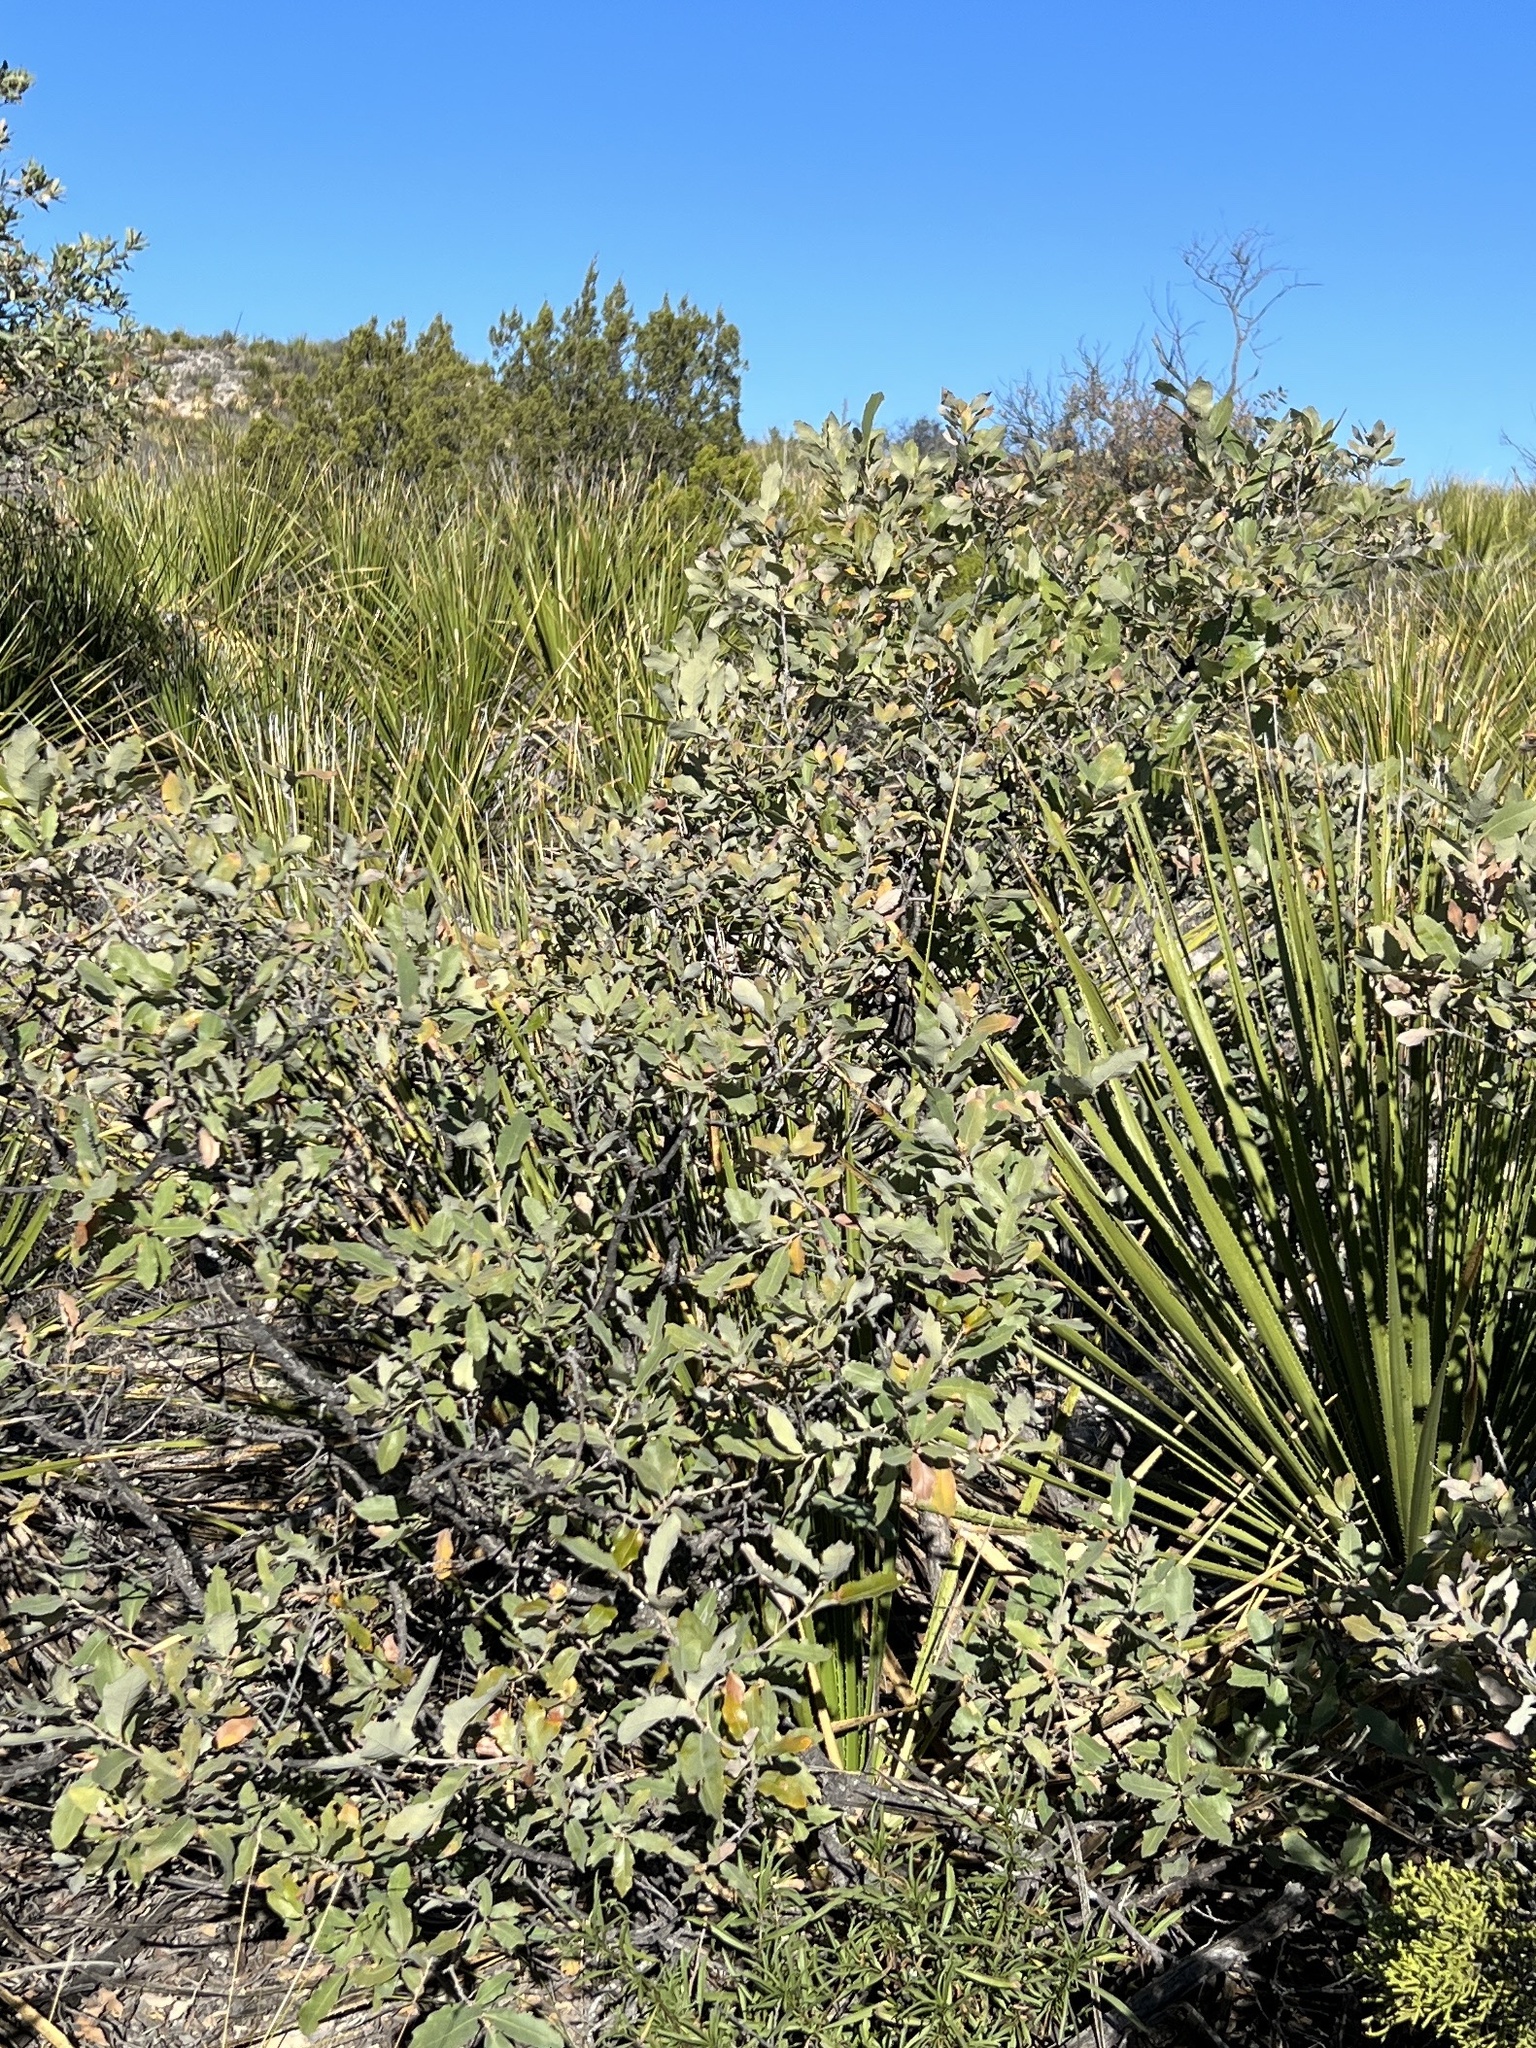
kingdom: Plantae
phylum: Tracheophyta
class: Magnoliopsida
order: Fagales
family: Fagaceae
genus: Quercus
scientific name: Quercus vaseyana
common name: Sandpaper oak
